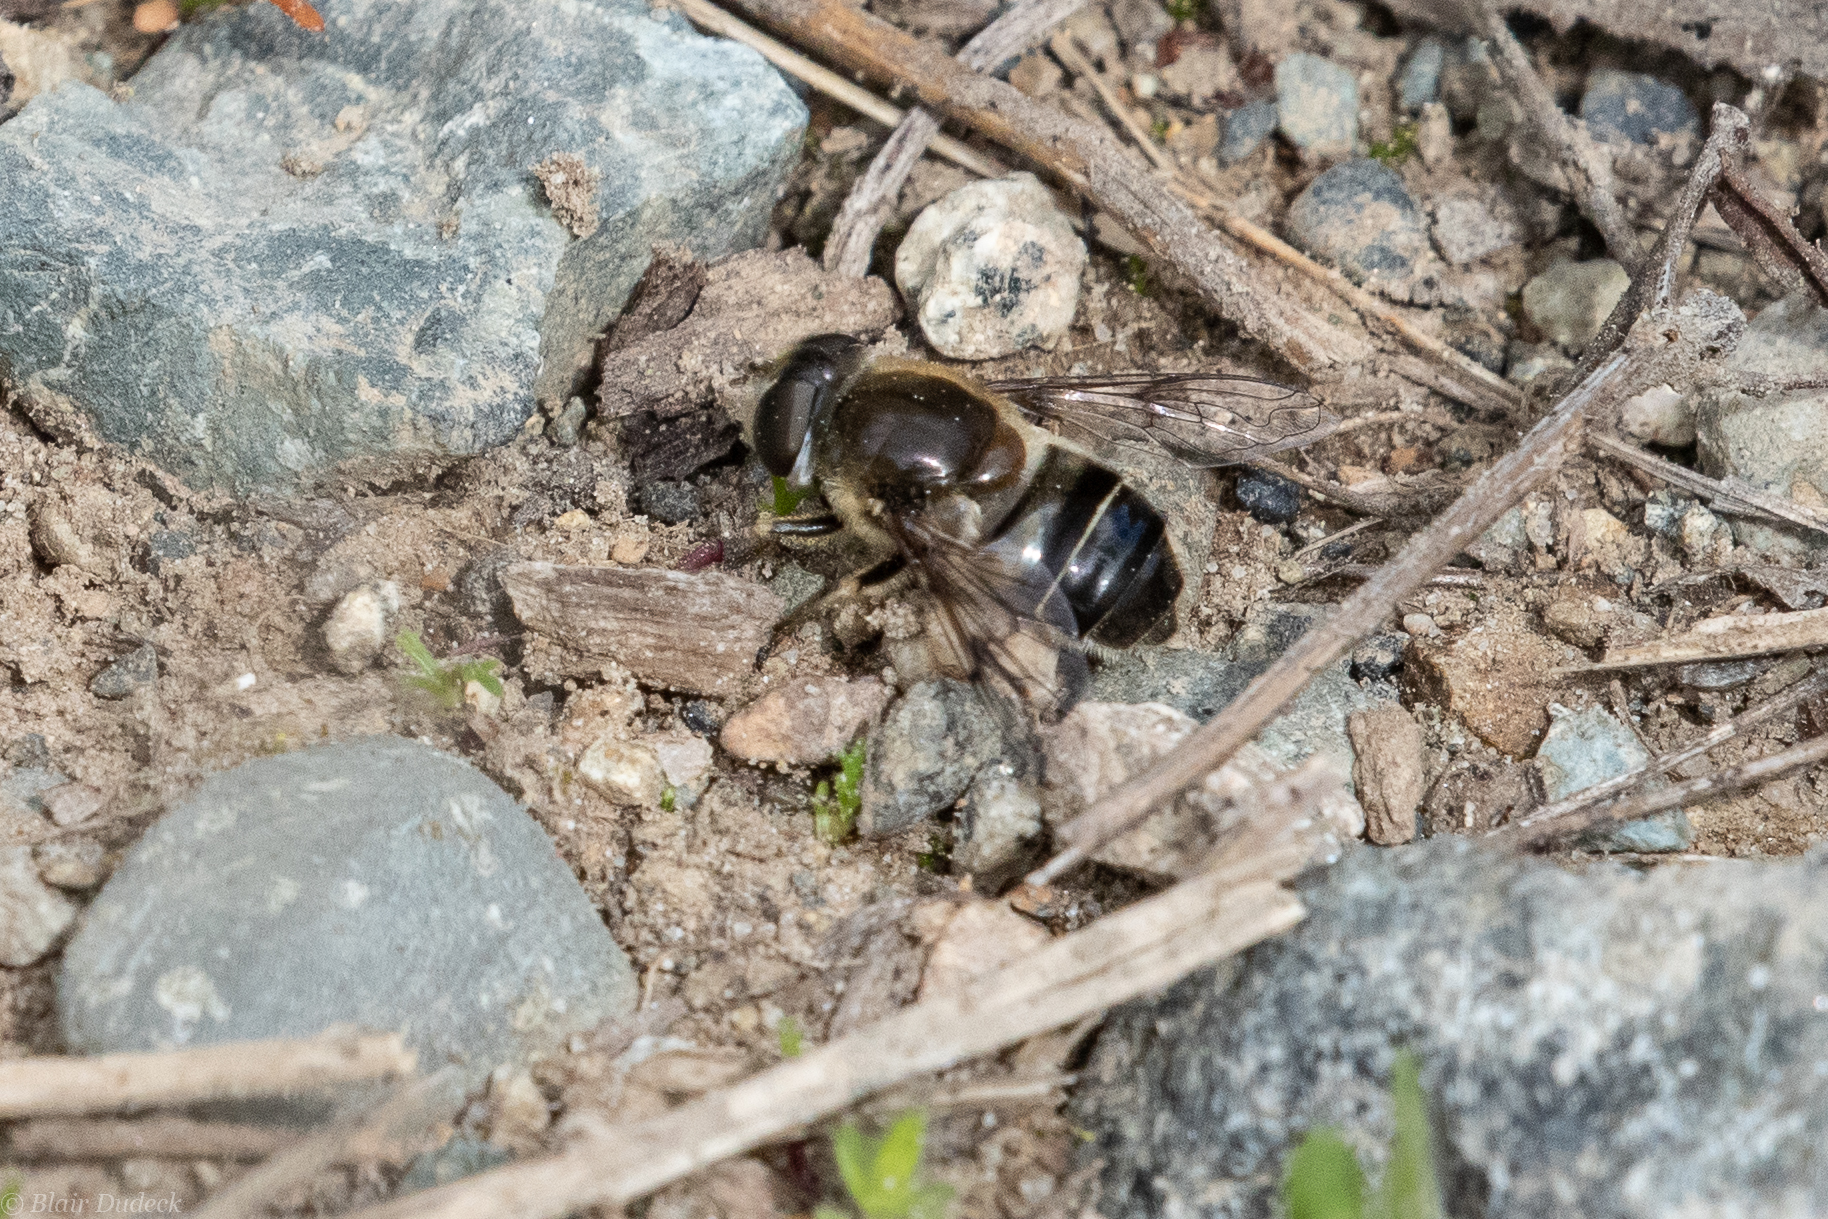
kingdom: Animalia
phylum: Arthropoda
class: Insecta
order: Diptera
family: Syrphidae
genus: Eoseristalis
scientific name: Eoseristalis
